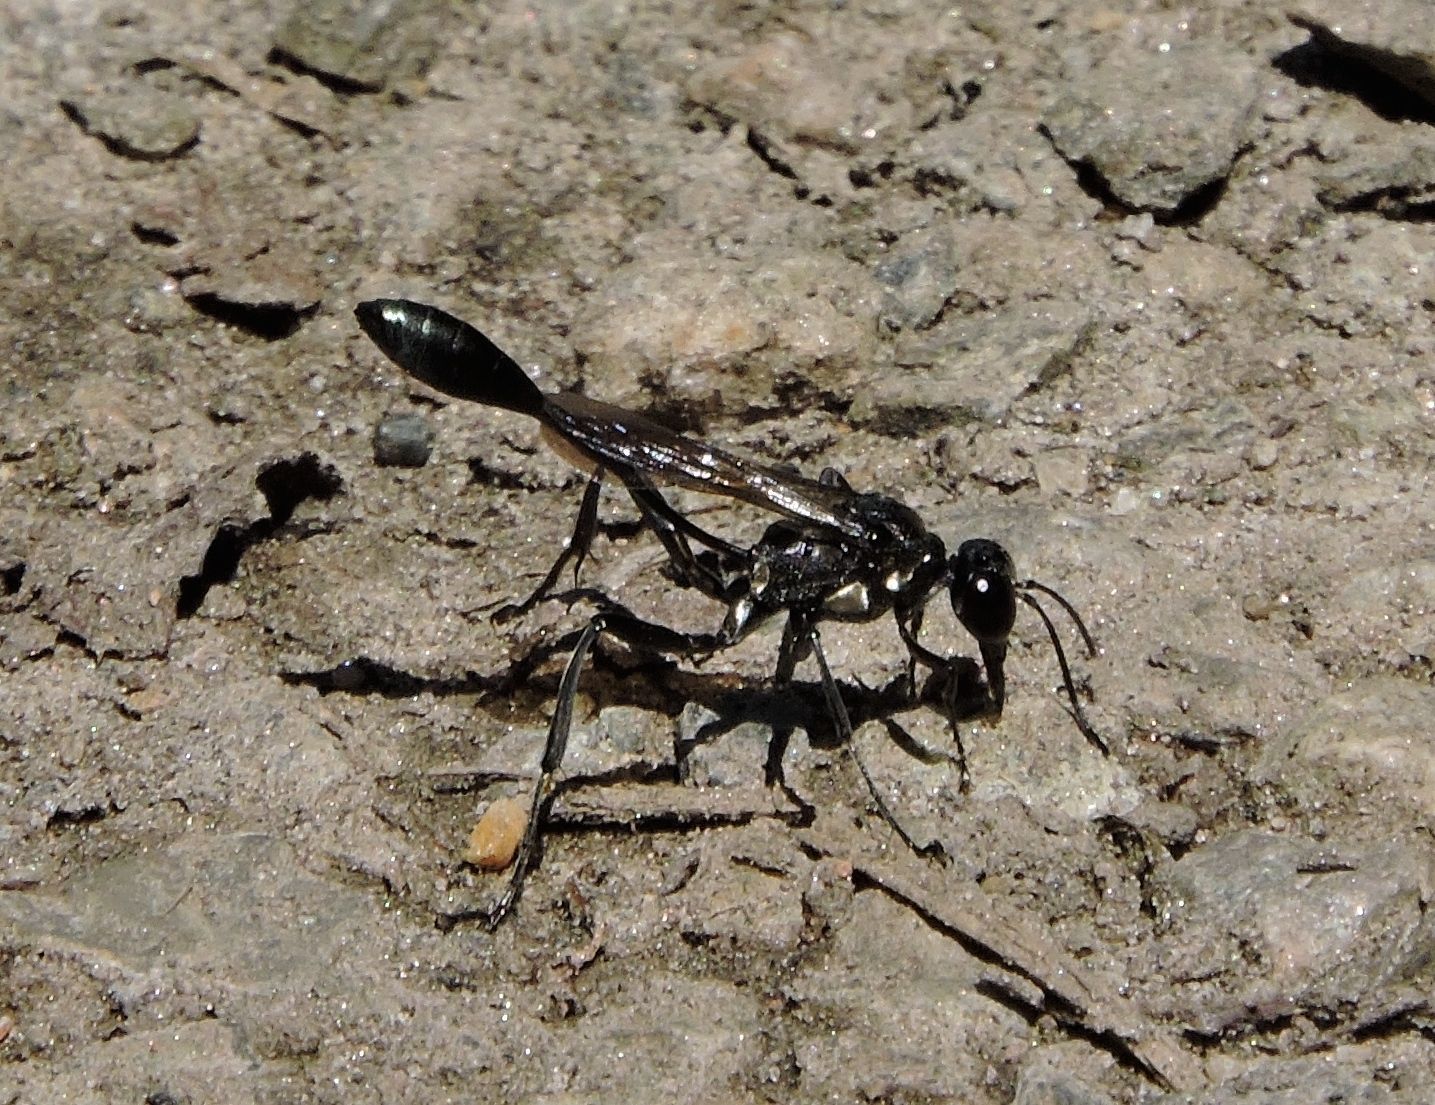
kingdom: Animalia
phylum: Arthropoda
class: Insecta
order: Hymenoptera
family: Sphecidae
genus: Eremnophila
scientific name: Eremnophila aureonotata
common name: Gold-marked thread-waisted wasp
